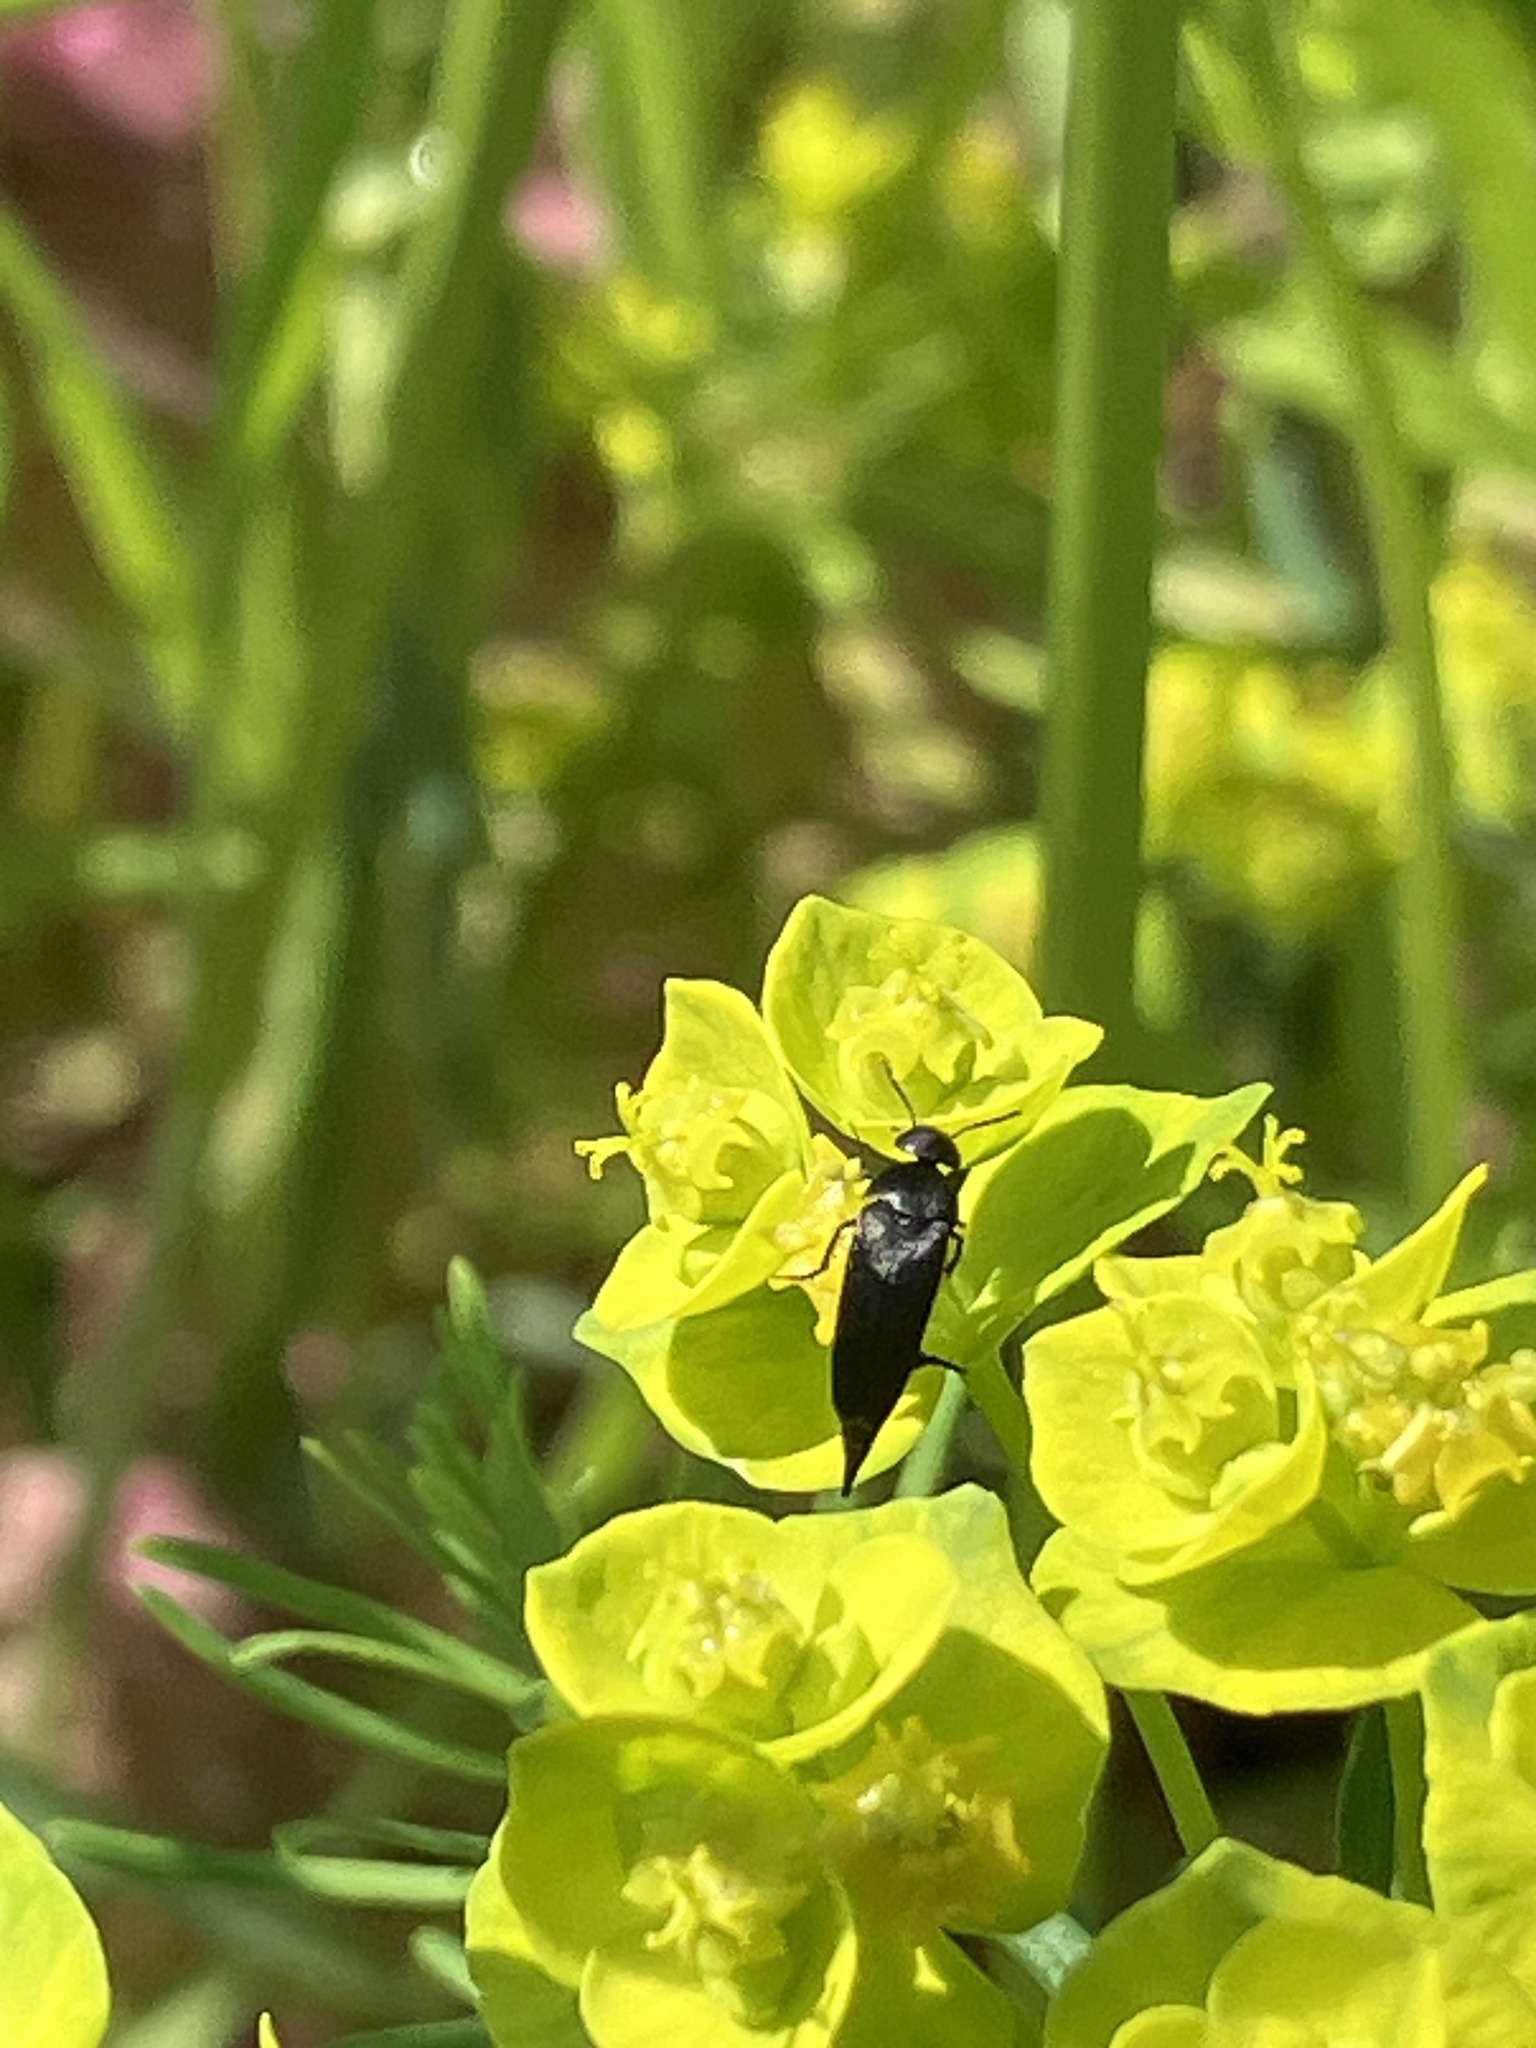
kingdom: Animalia
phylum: Arthropoda
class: Insecta
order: Coleoptera
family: Mordellidae
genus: Mordellistena
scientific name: Mordellistena brevicauda
